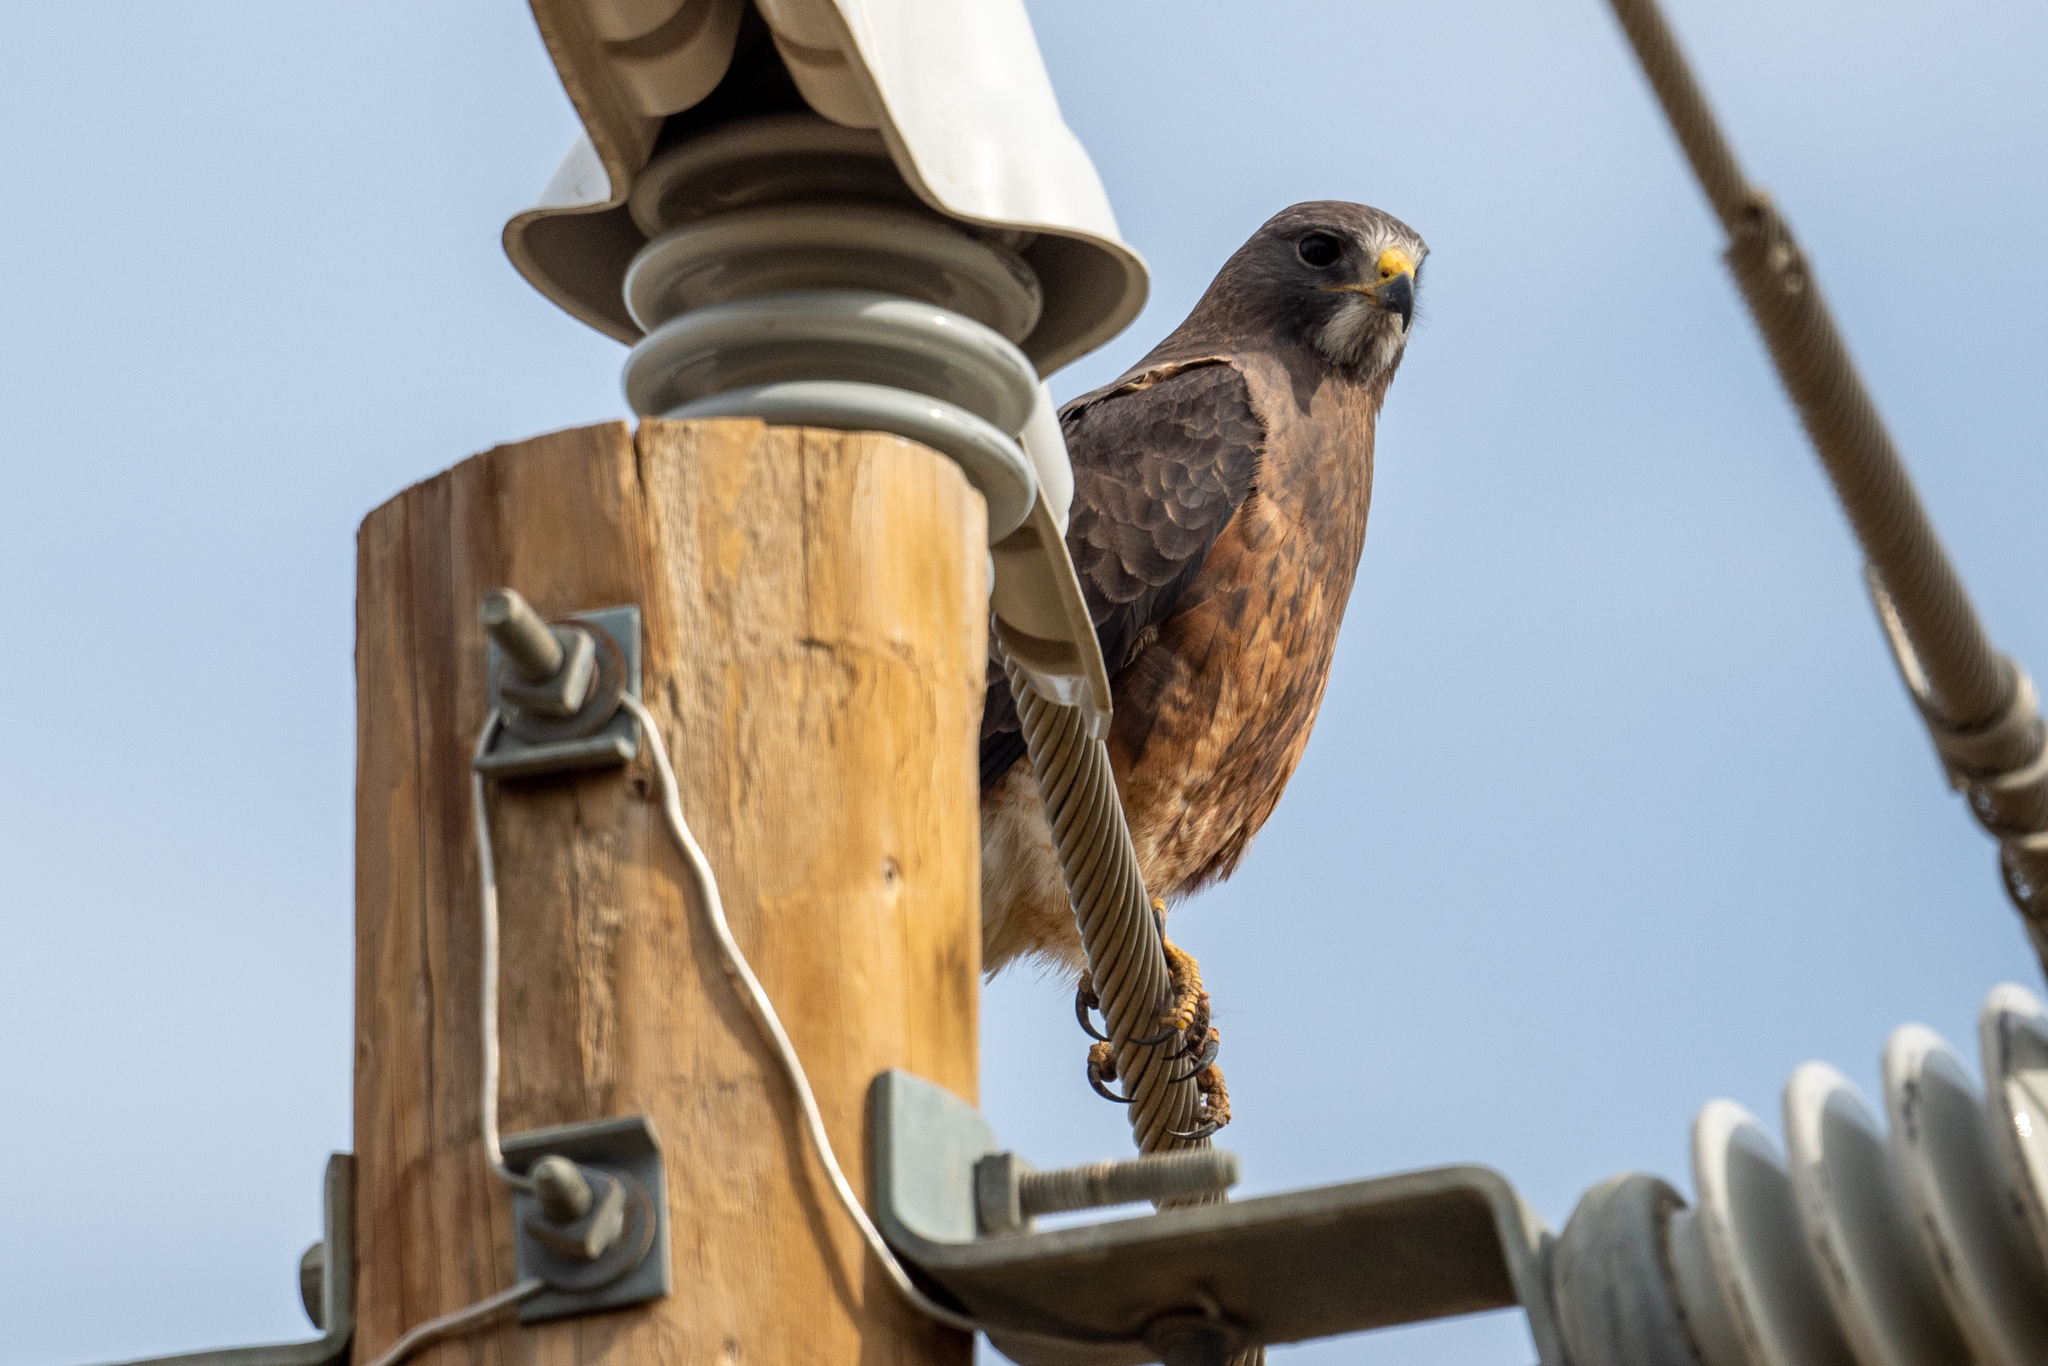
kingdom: Animalia
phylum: Chordata
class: Aves
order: Accipitriformes
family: Accipitridae
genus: Buteo
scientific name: Buteo swainsoni
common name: Swainson's hawk
